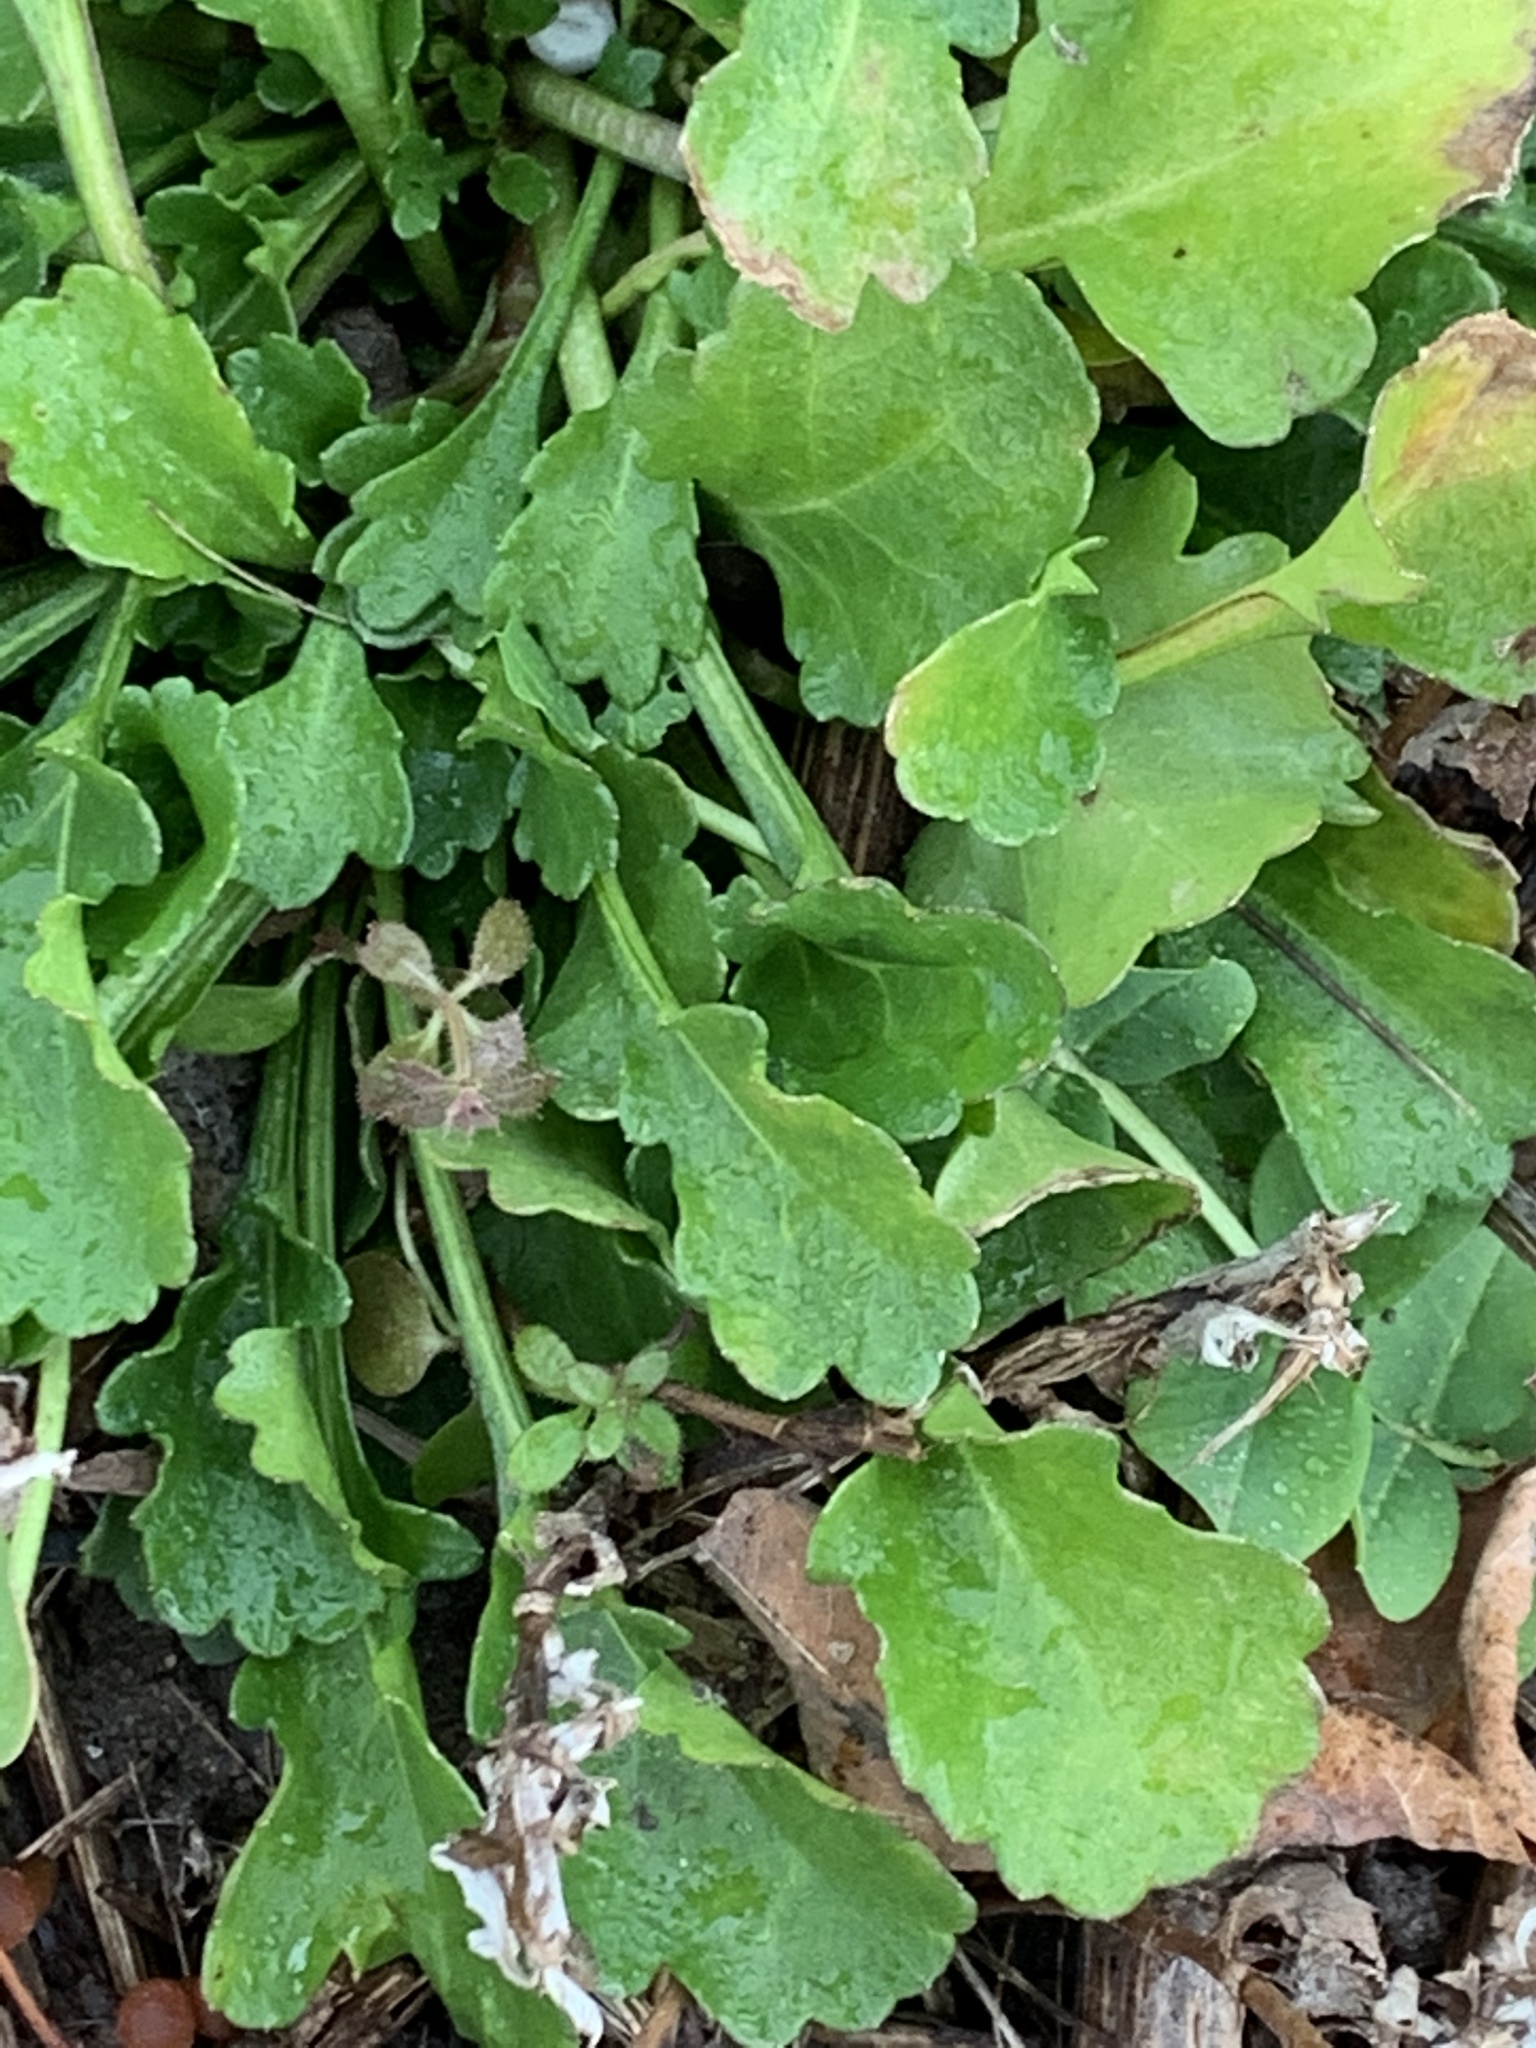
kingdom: Plantae
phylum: Tracheophyta
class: Magnoliopsida
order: Asterales
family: Asteraceae
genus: Leucanthemum
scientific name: Leucanthemum vulgare
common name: Oxeye daisy
